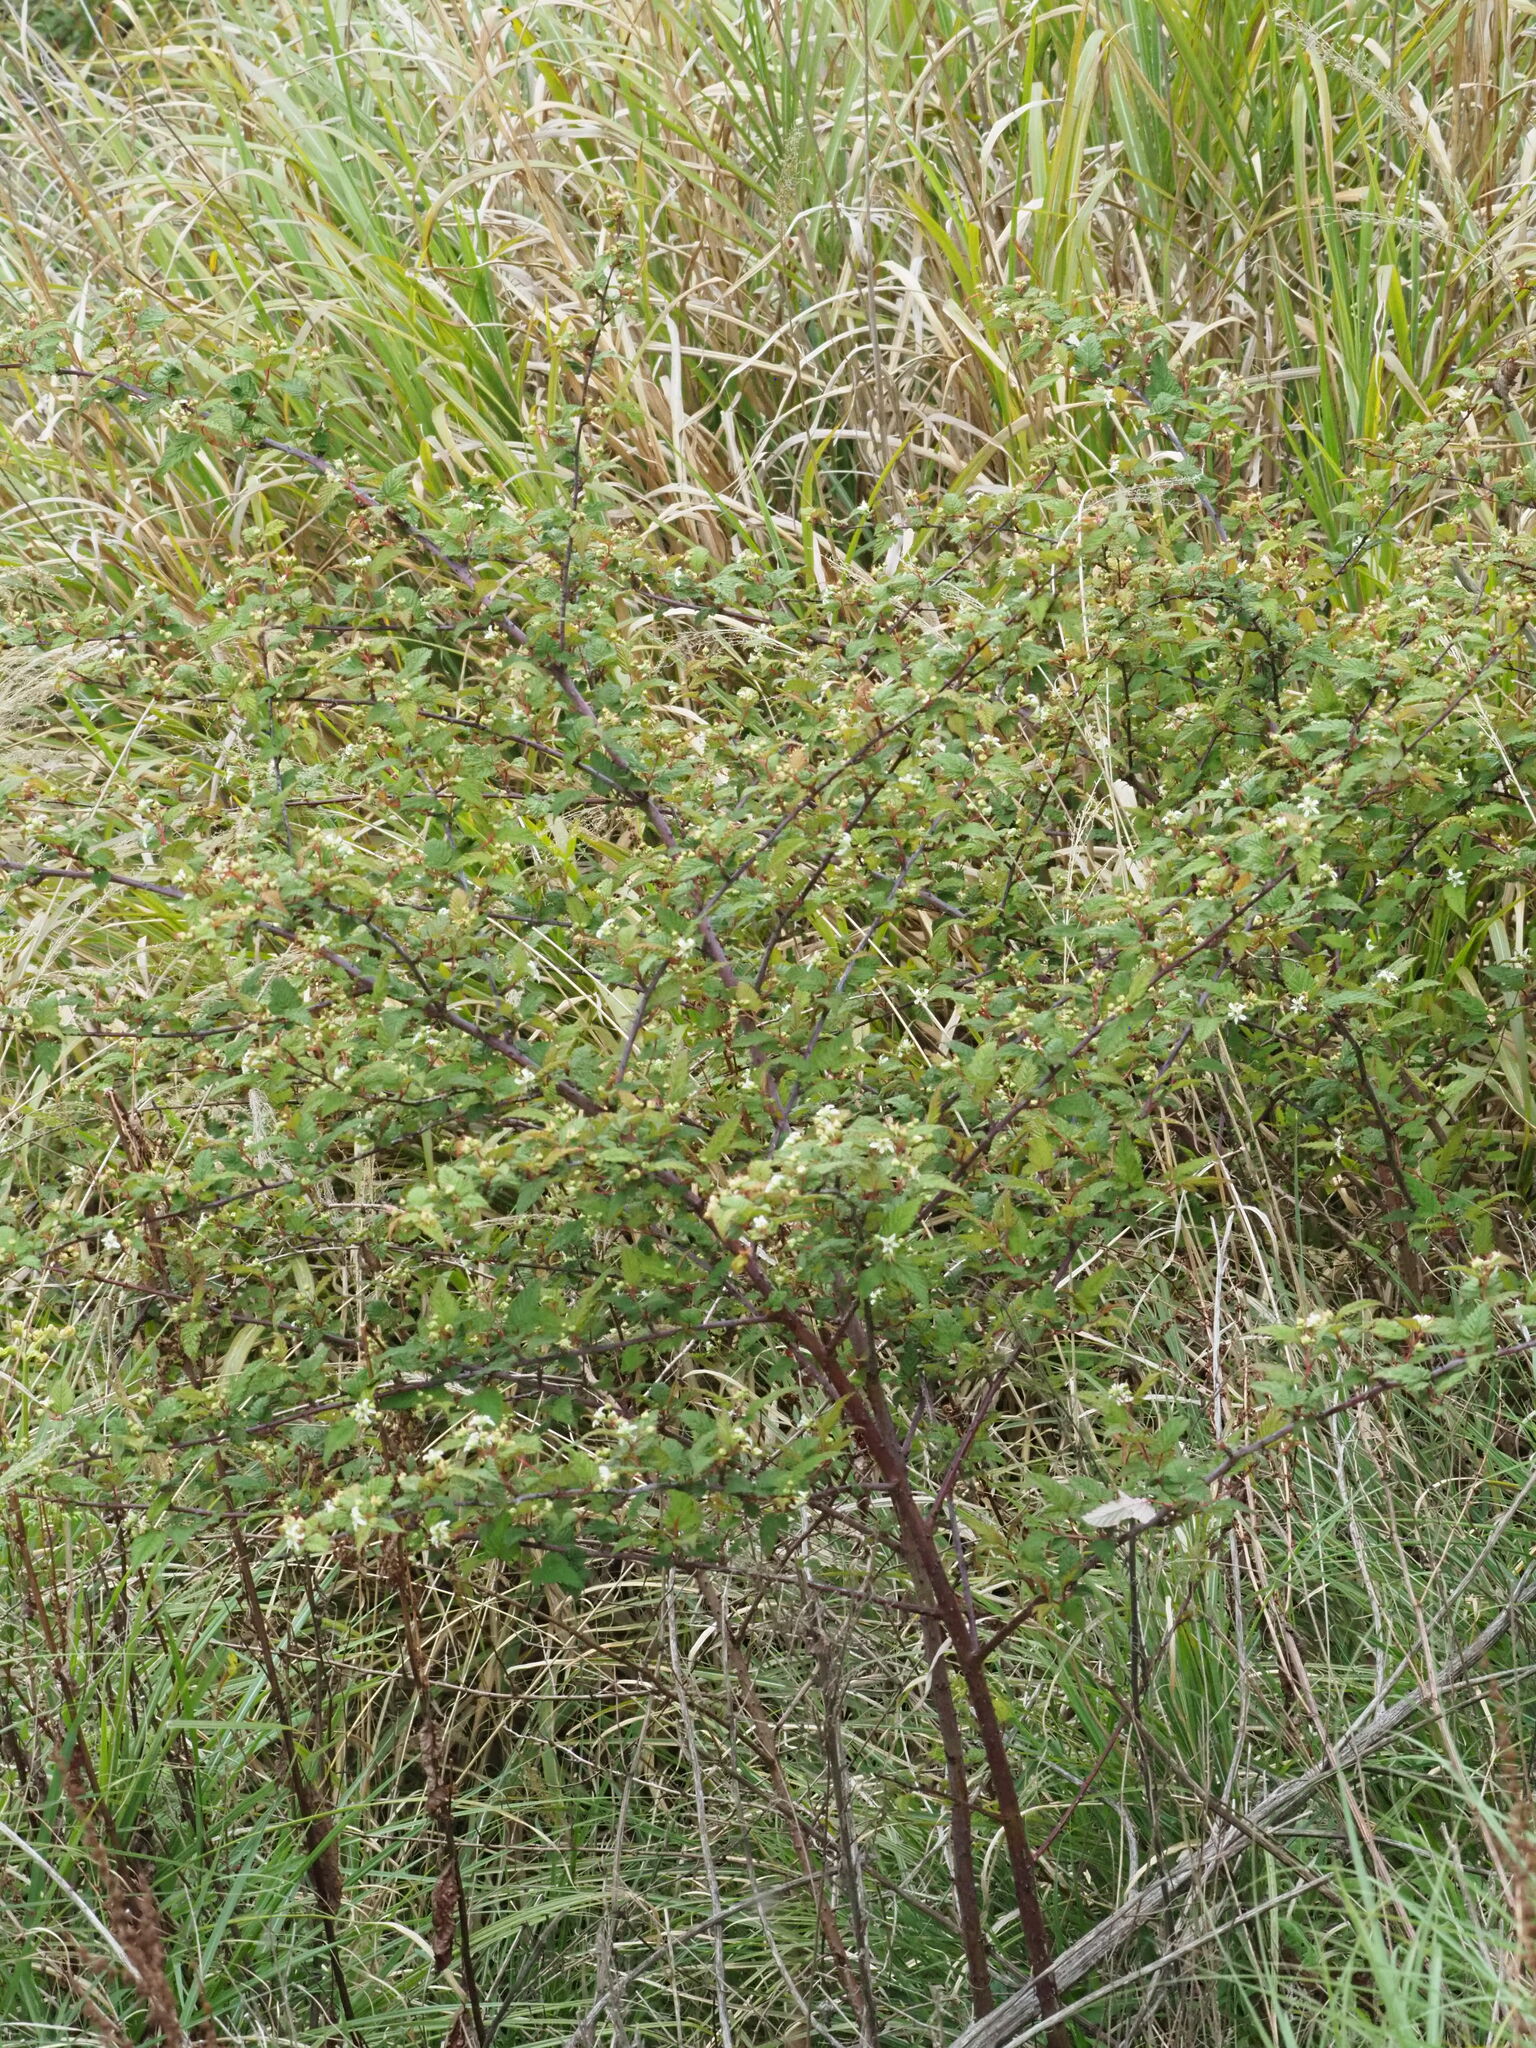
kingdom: Plantae
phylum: Tracheophyta
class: Magnoliopsida
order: Rosales
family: Rosaceae
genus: Rubus
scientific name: Rubus subcrataegifolius
